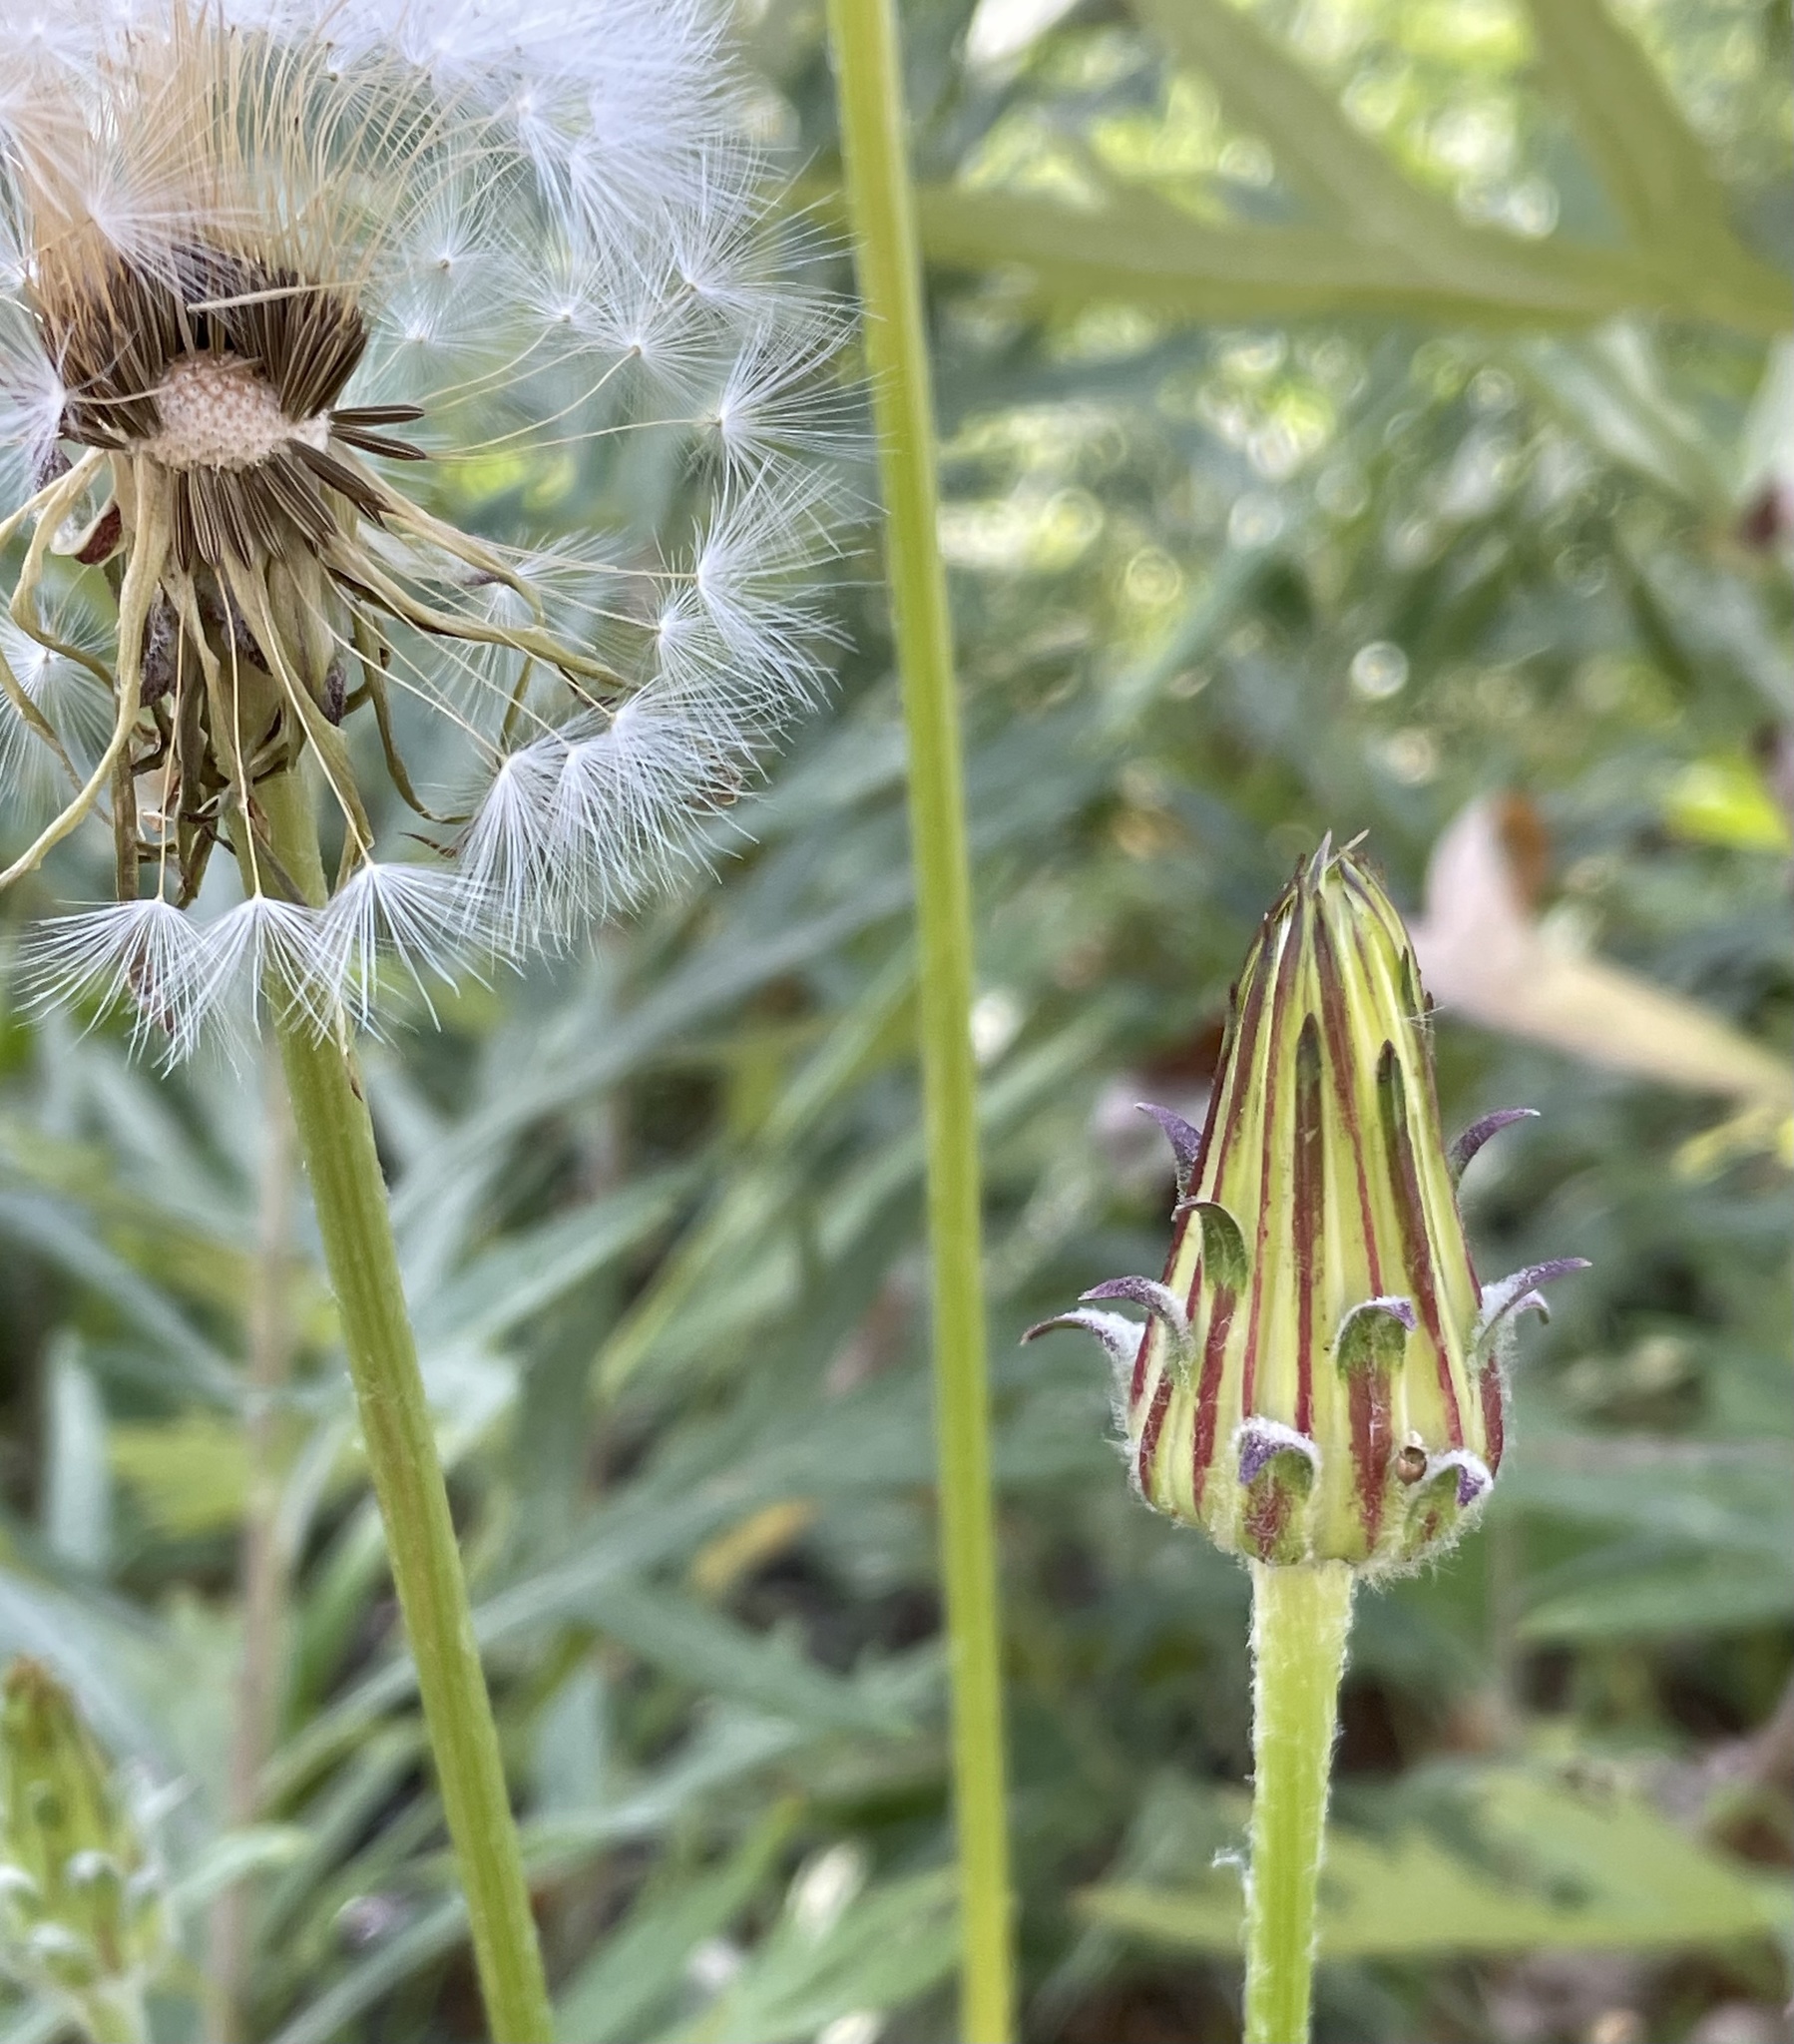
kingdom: Plantae
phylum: Tracheophyta
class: Magnoliopsida
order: Asterales
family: Asteraceae
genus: Agoseris
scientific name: Agoseris grandiflora
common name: Grassland agoseris
